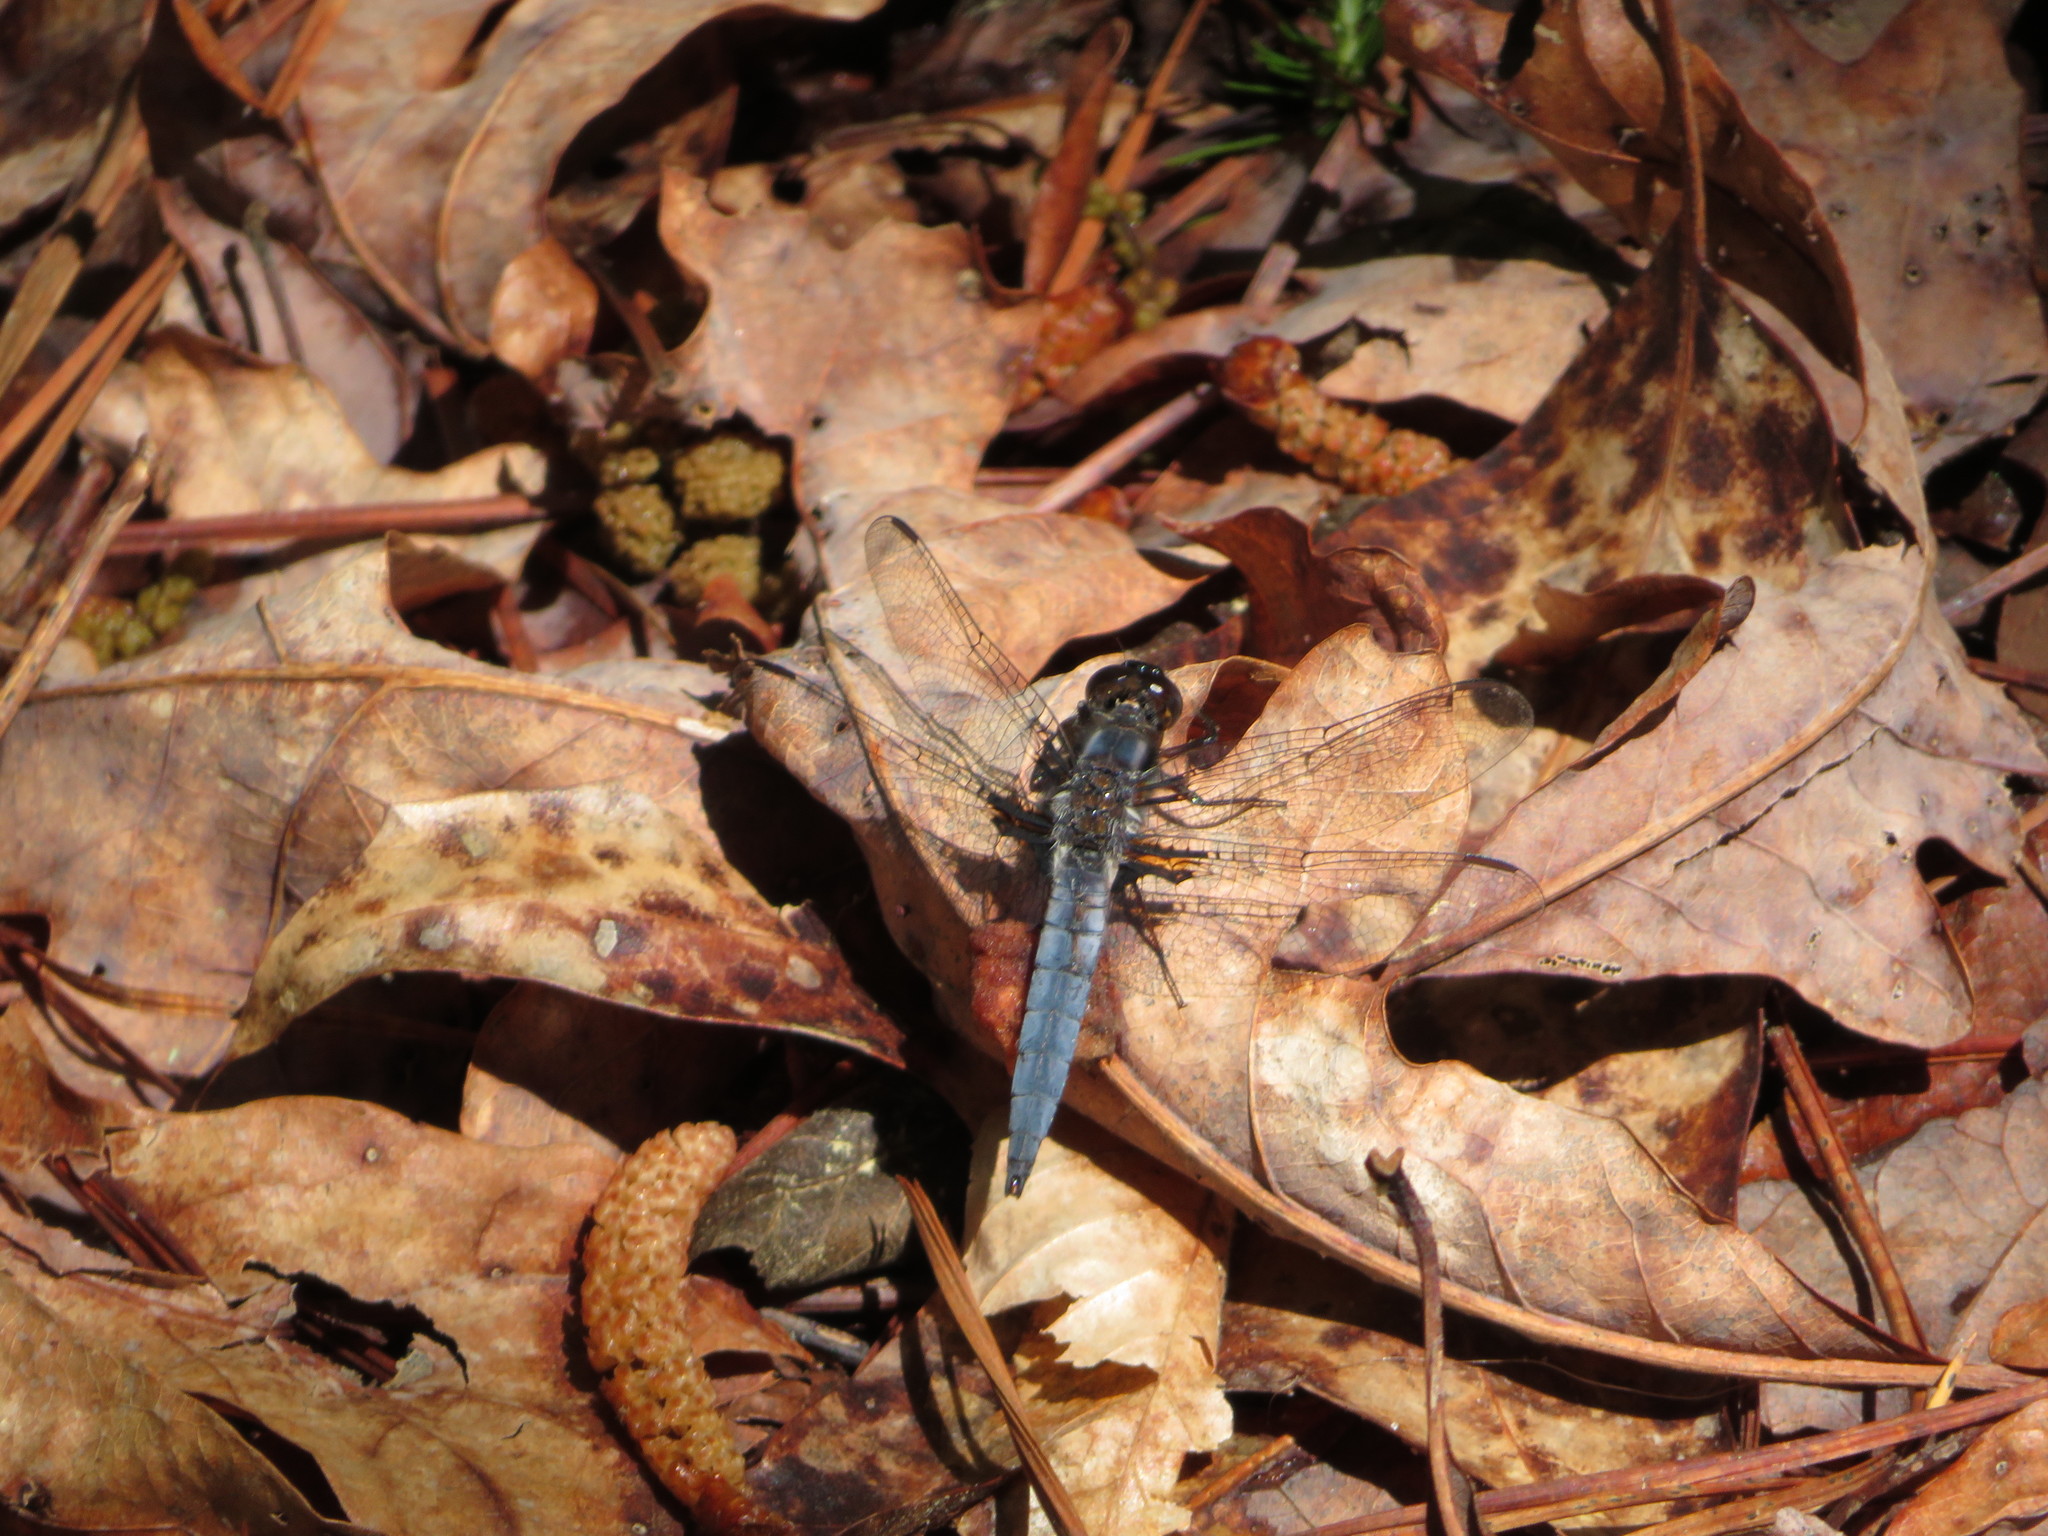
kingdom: Animalia
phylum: Arthropoda
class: Insecta
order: Odonata
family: Libellulidae
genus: Ladona
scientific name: Ladona deplanata
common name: Blue corporal
